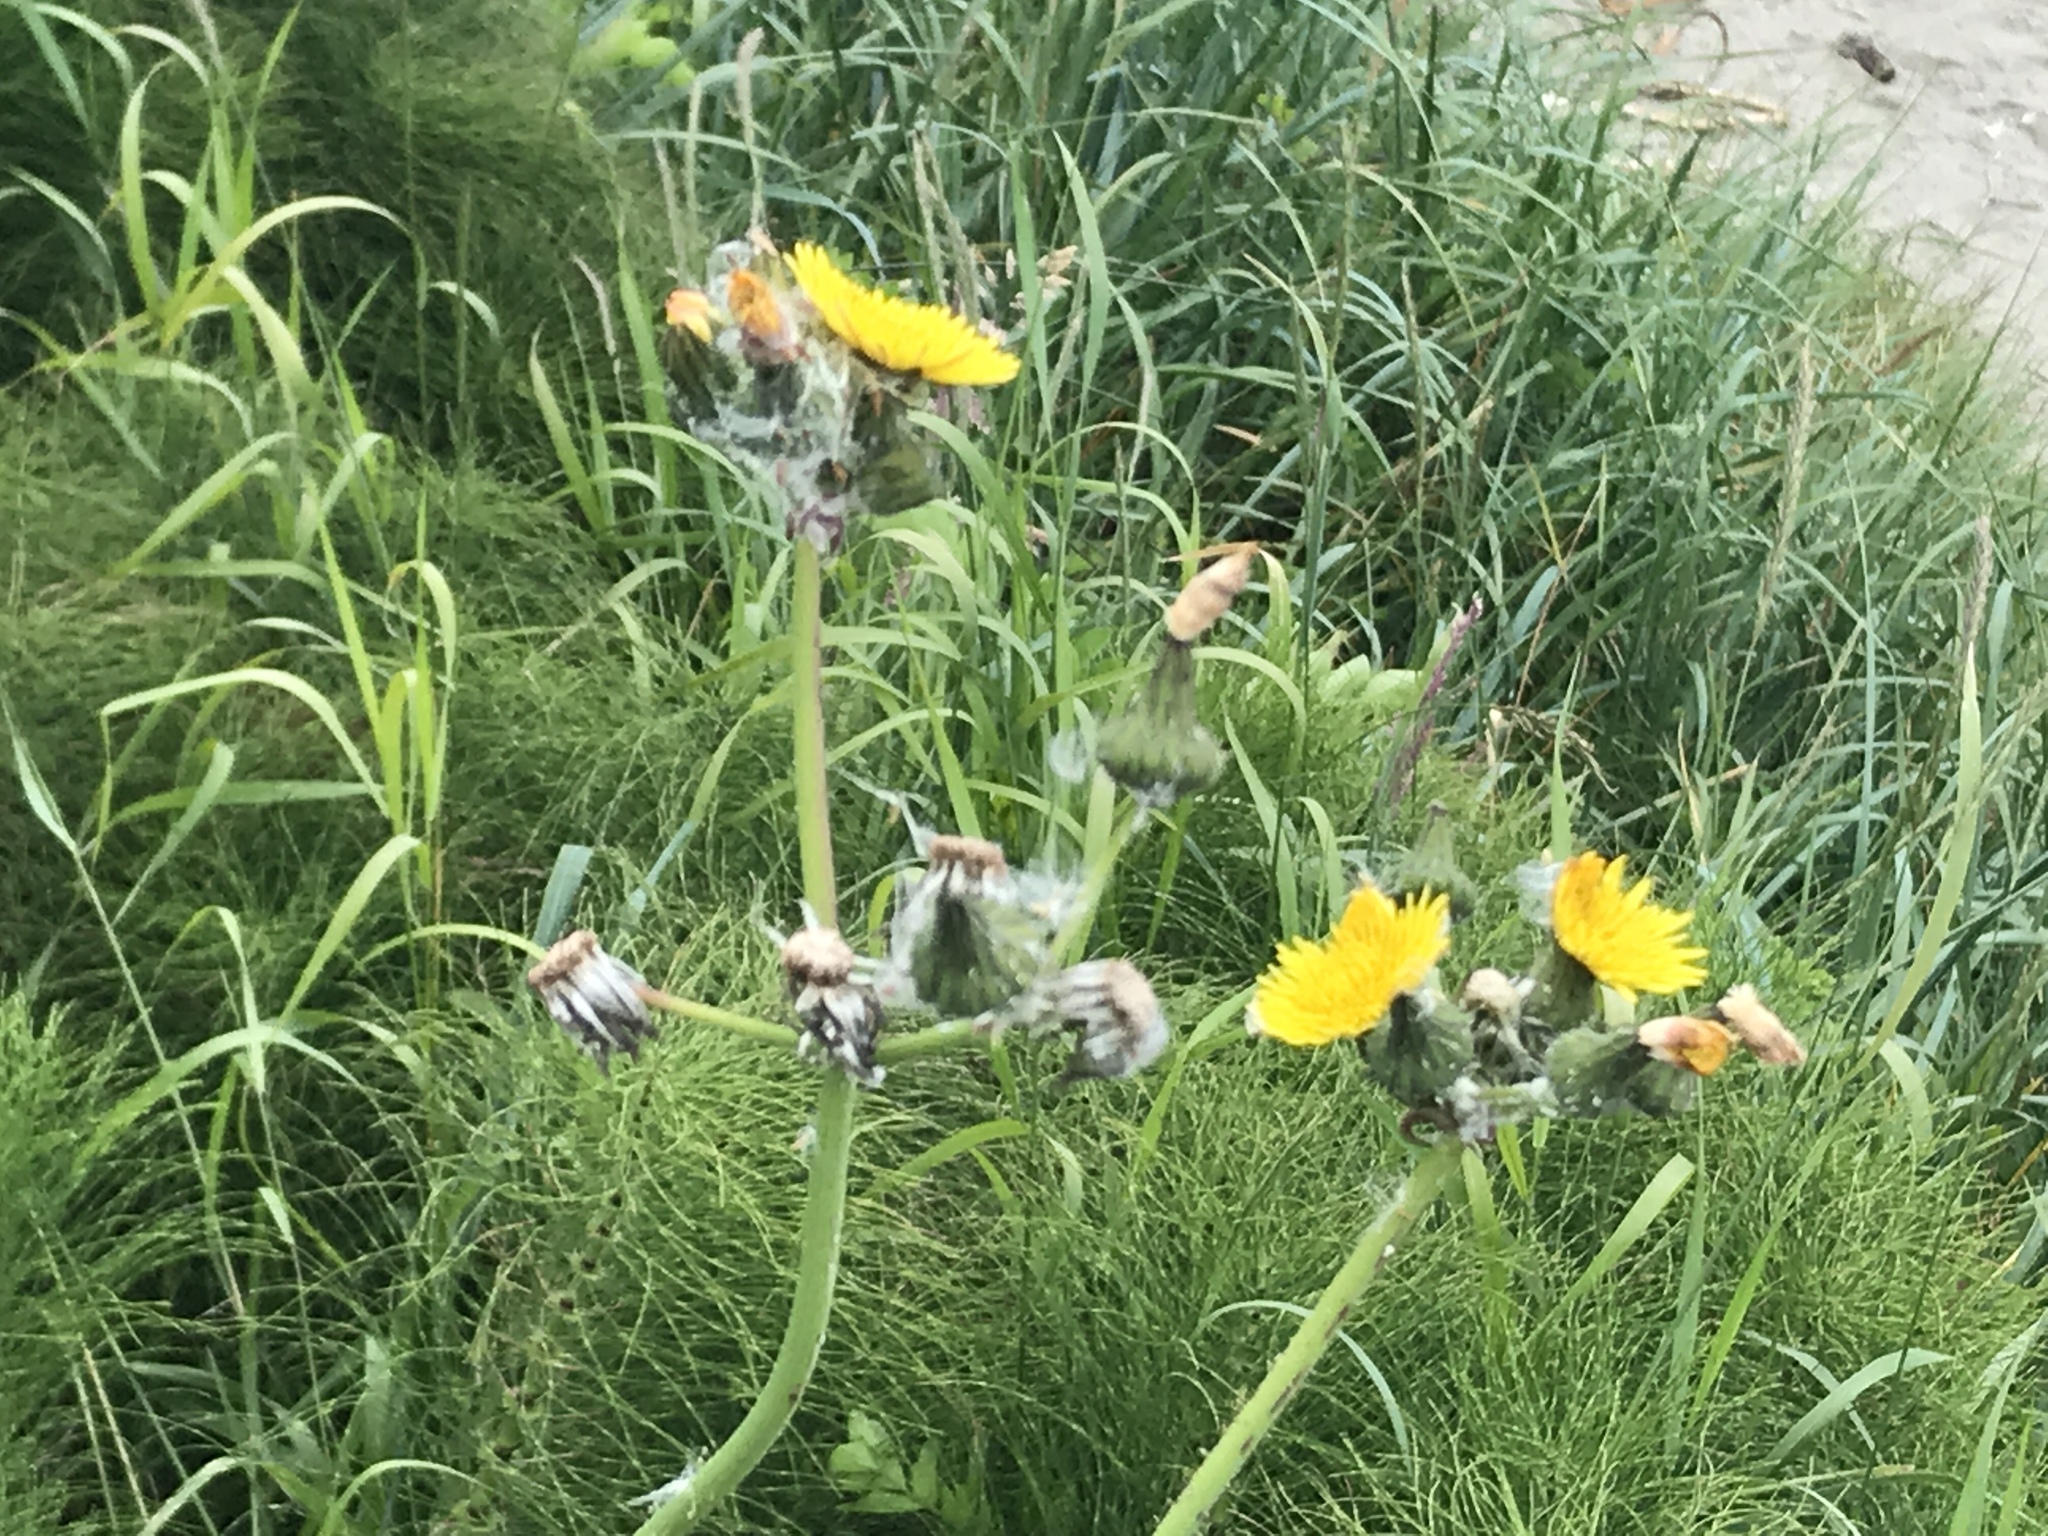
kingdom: Plantae
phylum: Tracheophyta
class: Magnoliopsida
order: Asterales
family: Asteraceae
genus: Sonchus
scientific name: Sonchus asper
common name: Prickly sow-thistle
